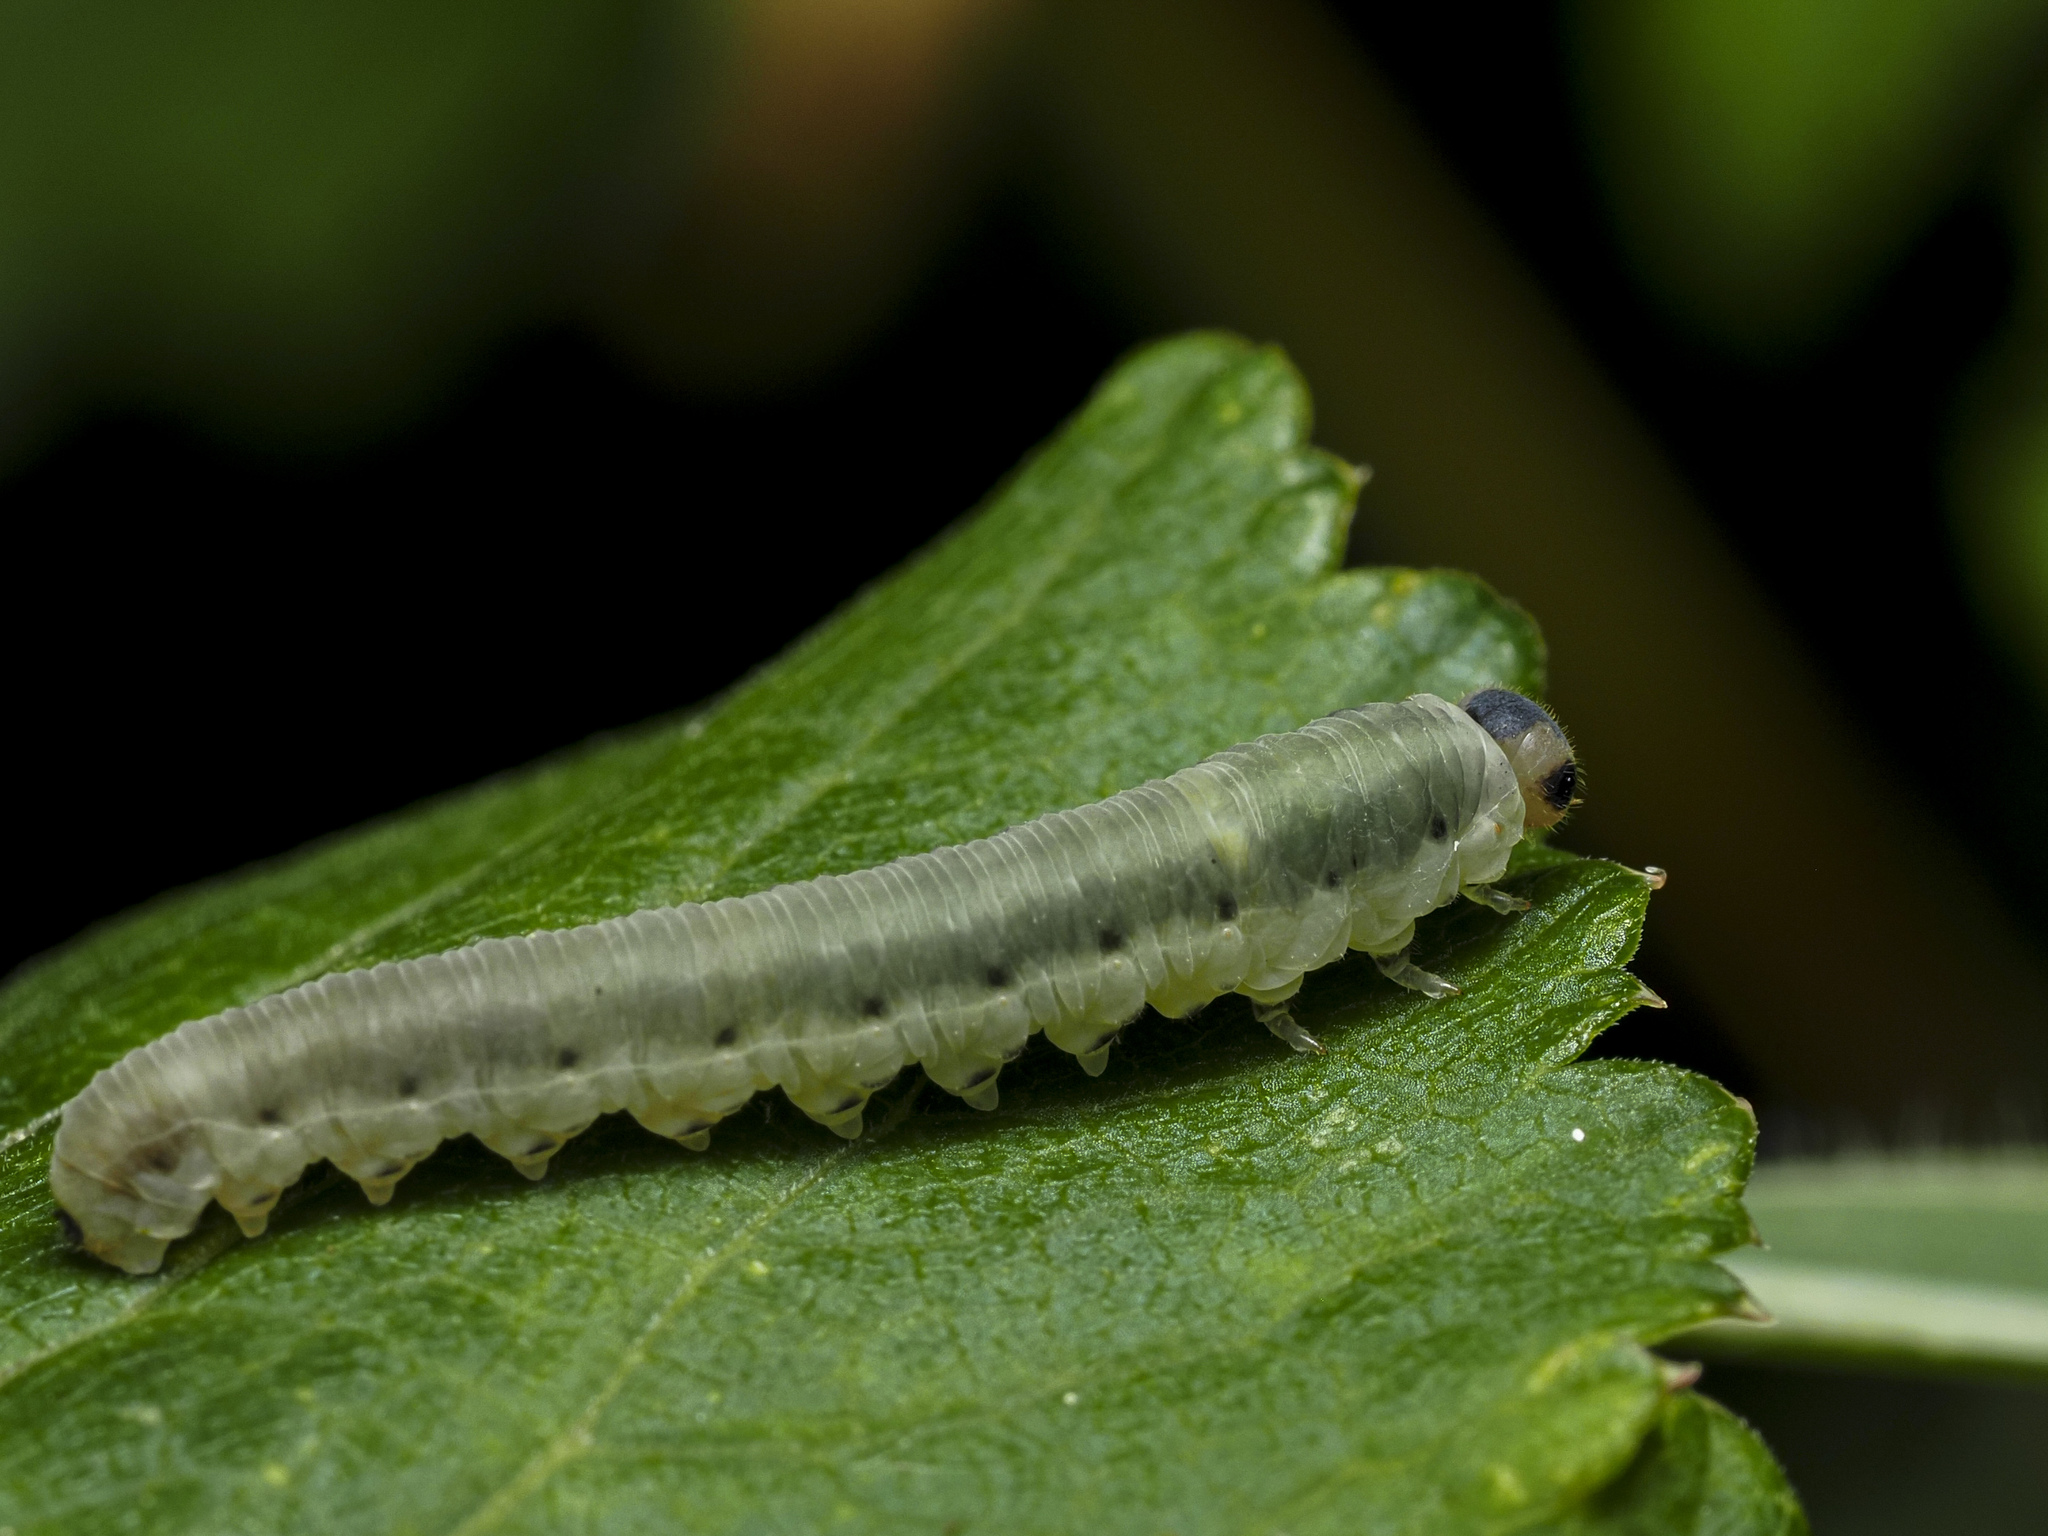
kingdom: Animalia
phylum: Arthropoda
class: Insecta
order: Hymenoptera
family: Tenthredinidae
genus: Macrophya
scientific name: Macrophya alboannulata
